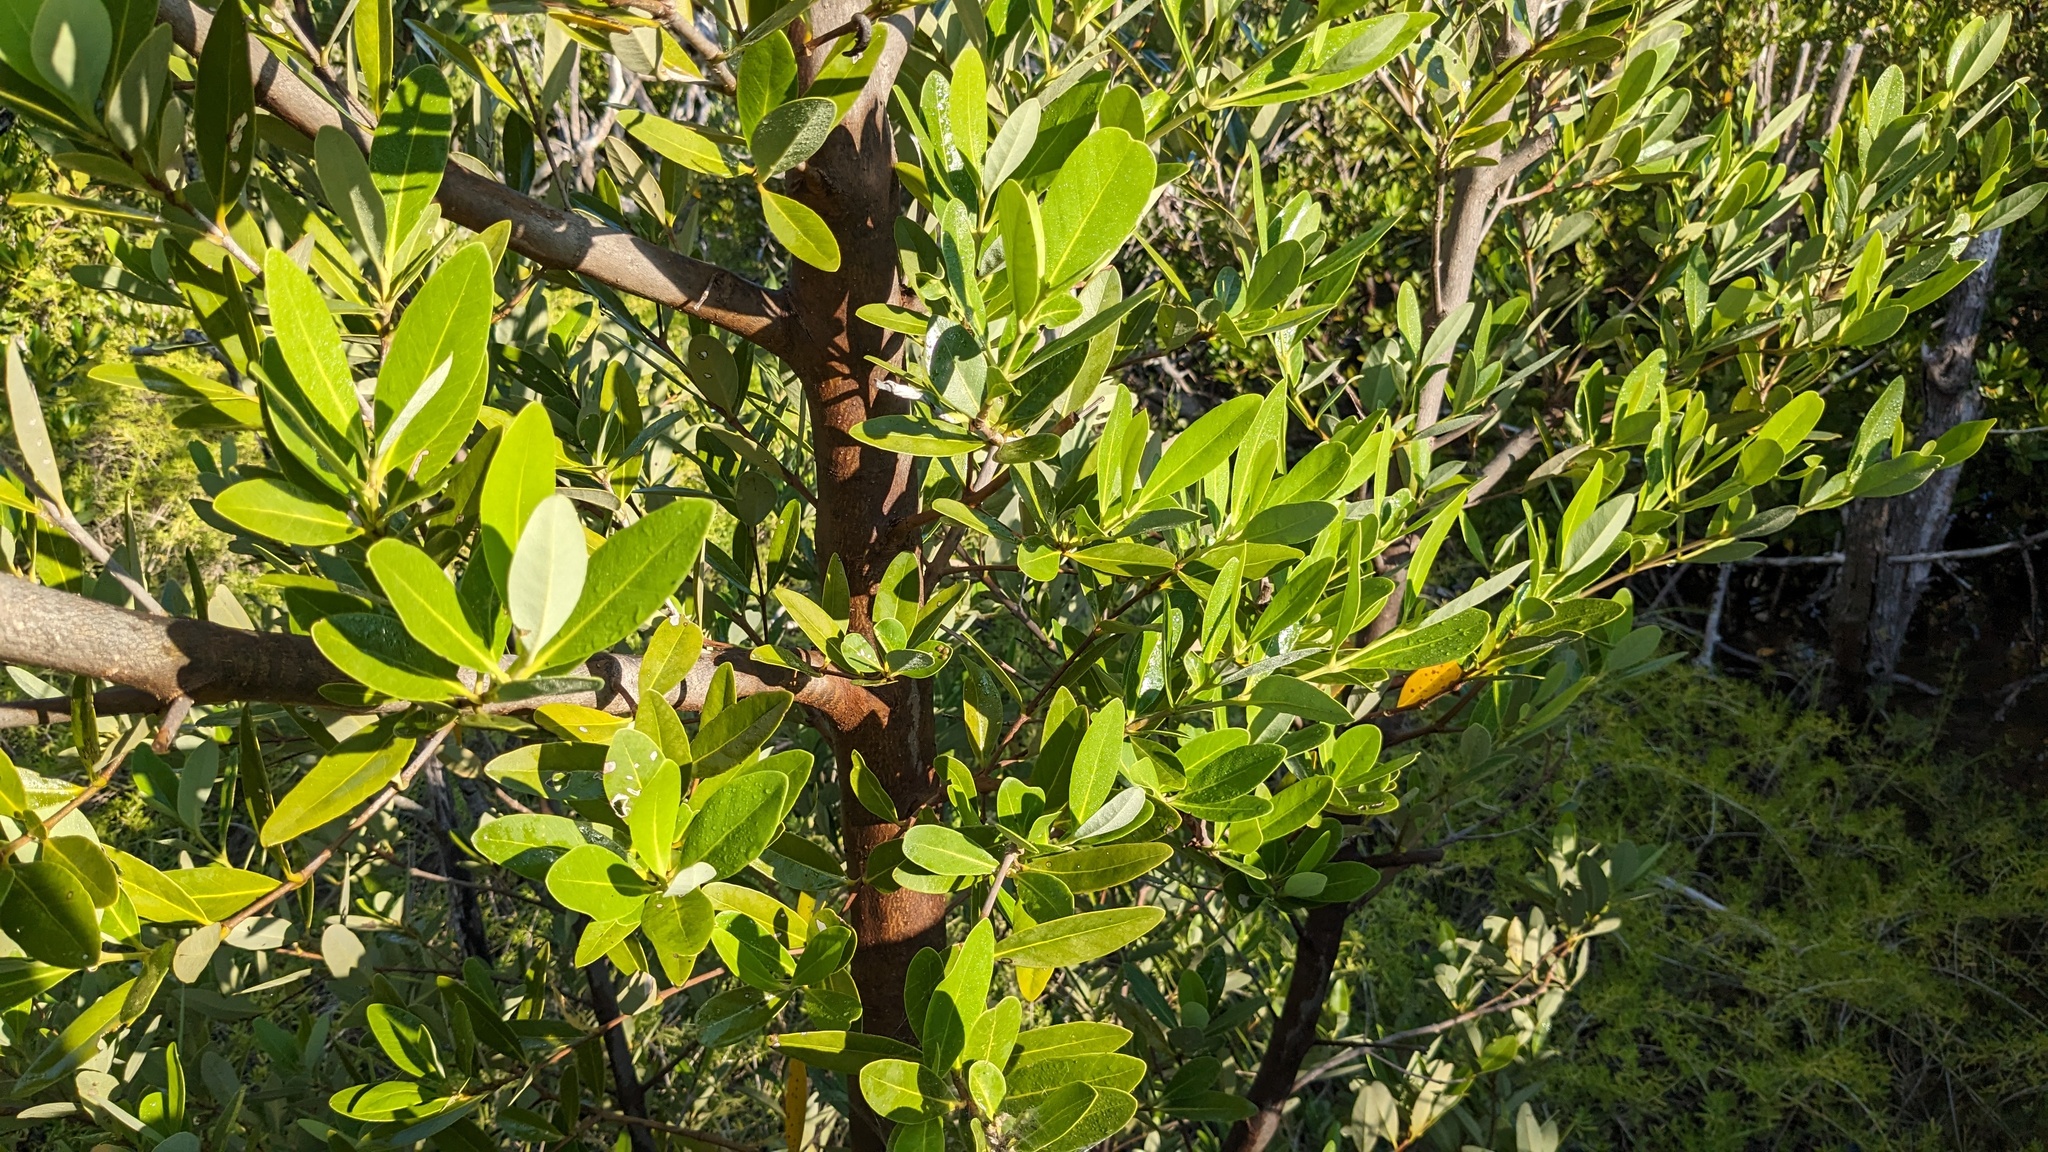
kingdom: Plantae
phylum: Tracheophyta
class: Magnoliopsida
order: Lamiales
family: Acanthaceae
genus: Avicennia
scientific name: Avicennia germinans
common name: Black mangrove
